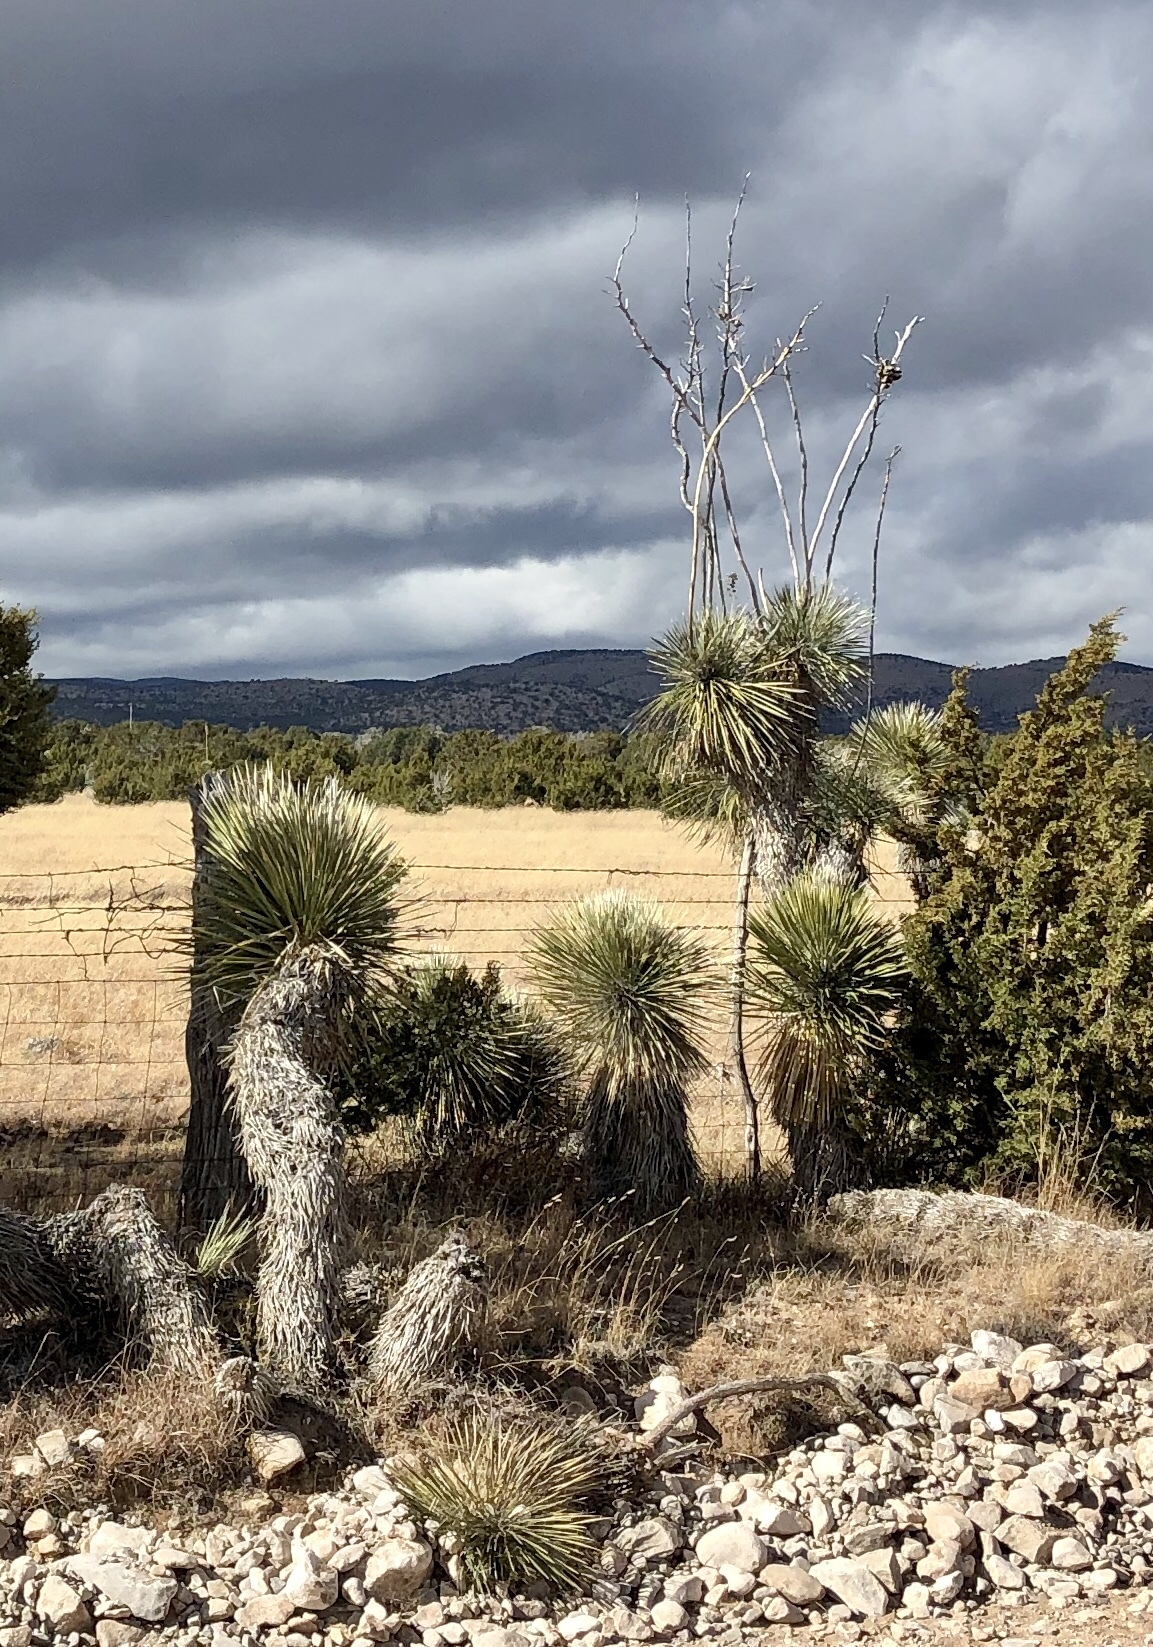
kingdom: Plantae
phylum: Tracheophyta
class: Liliopsida
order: Asparagales
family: Asparagaceae
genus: Yucca
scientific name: Yucca elata
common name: Palmella
